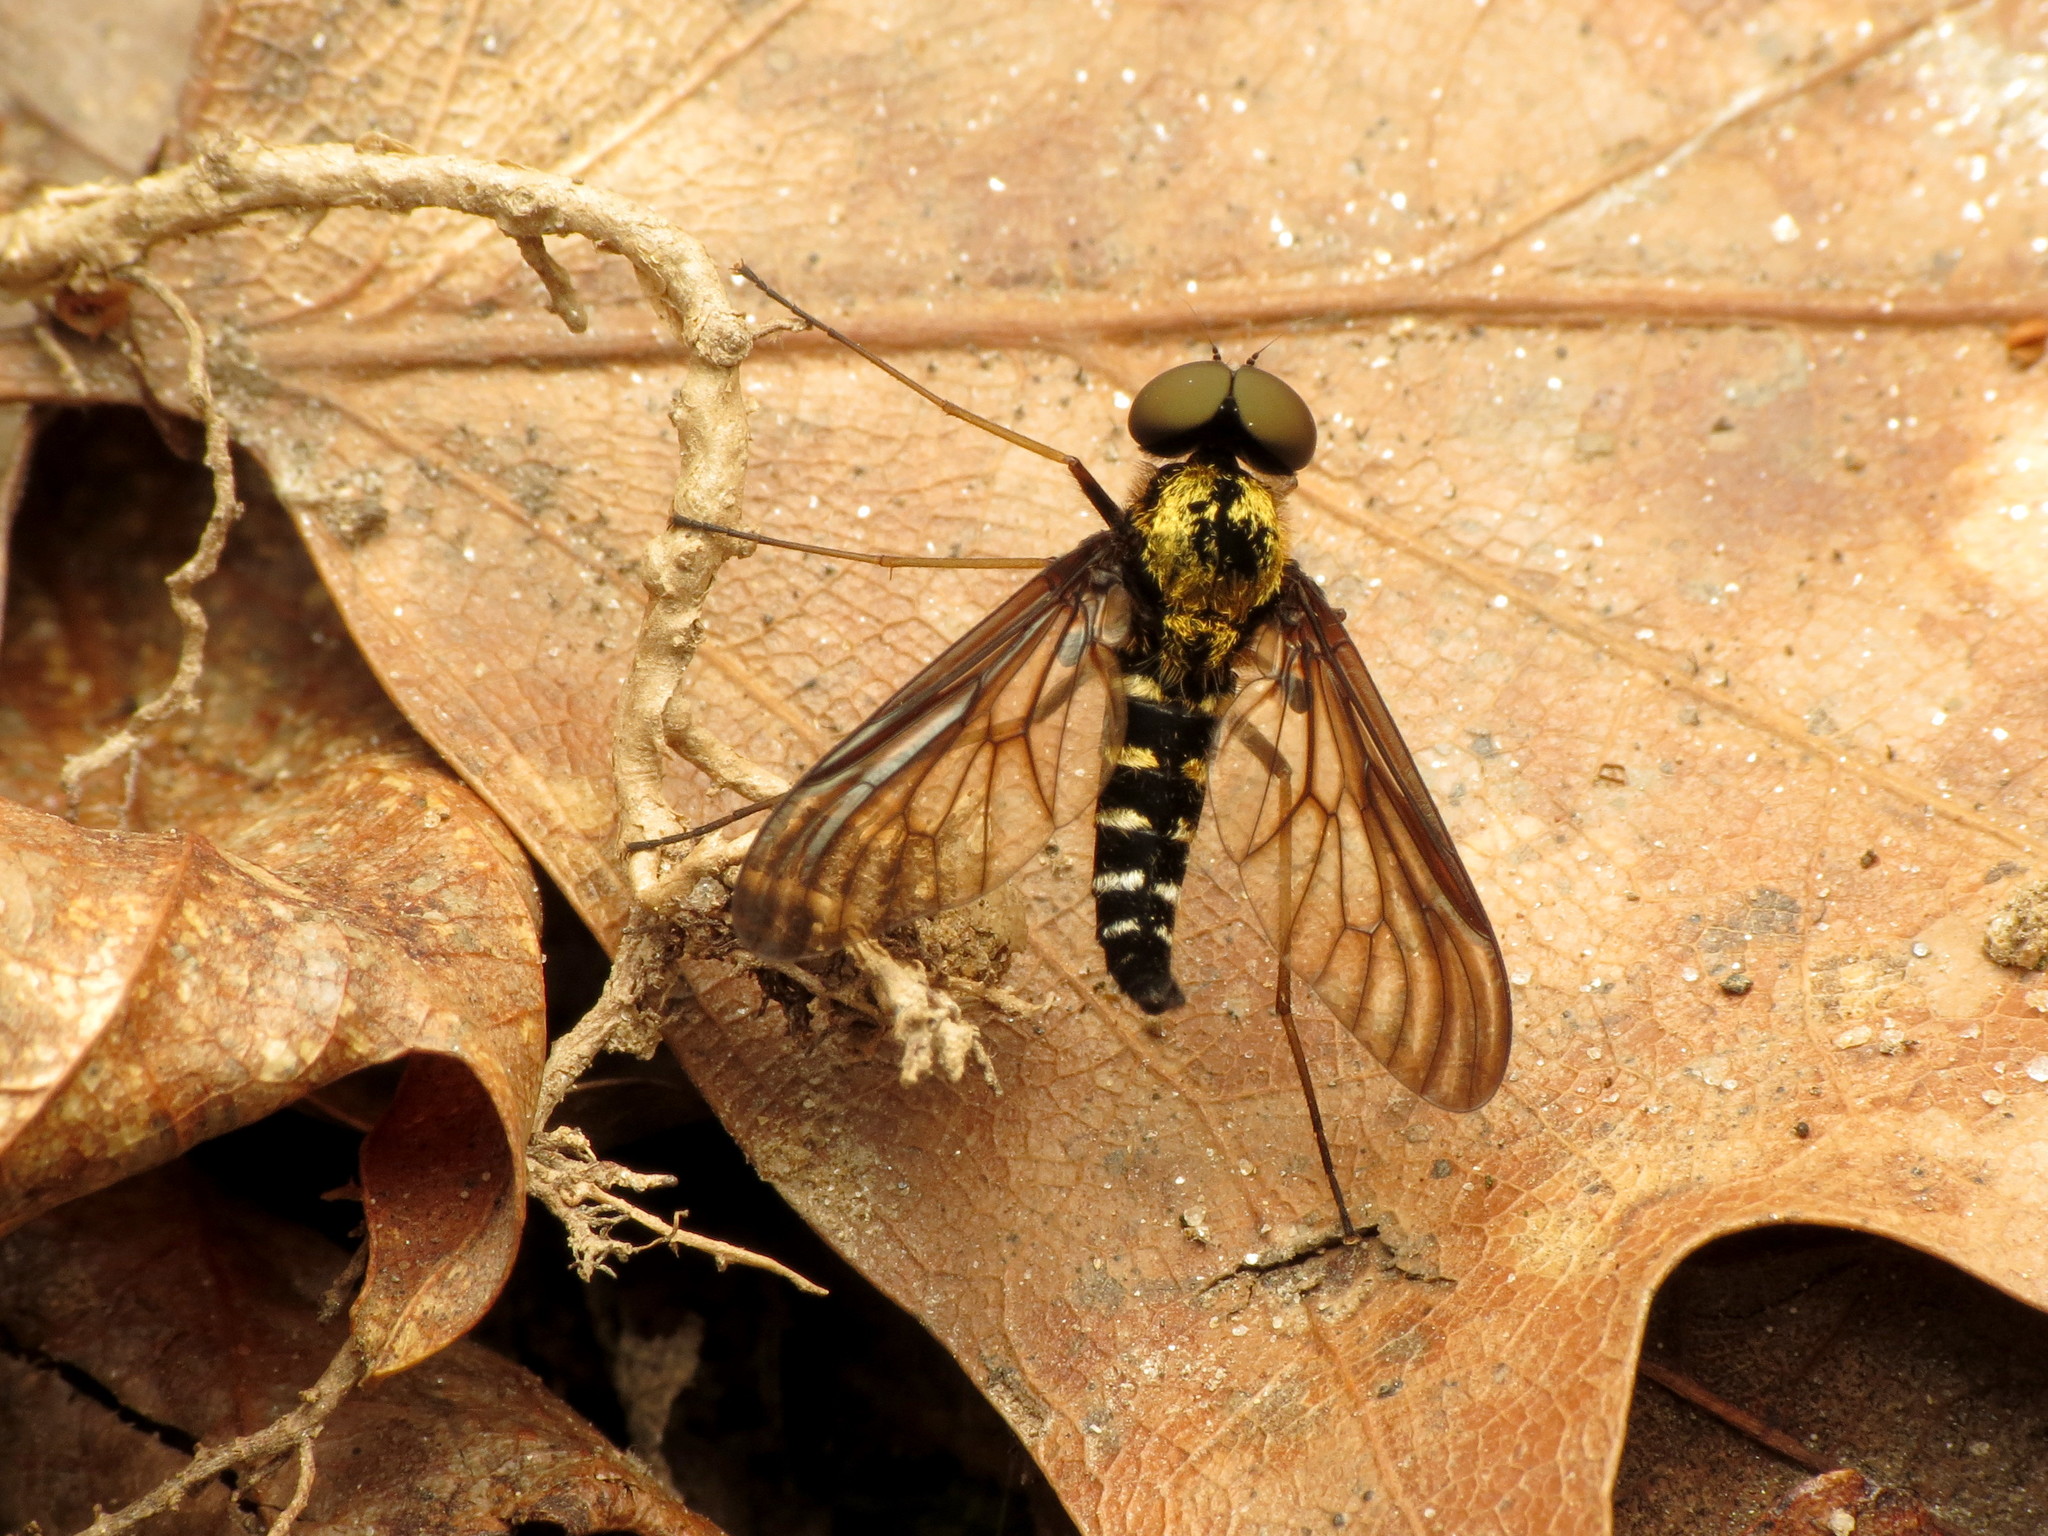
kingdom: Animalia
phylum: Arthropoda
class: Insecta
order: Diptera
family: Rhagionidae
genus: Chrysopilus
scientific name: Chrysopilus thoracicus
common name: Golden-backed snipe fly
